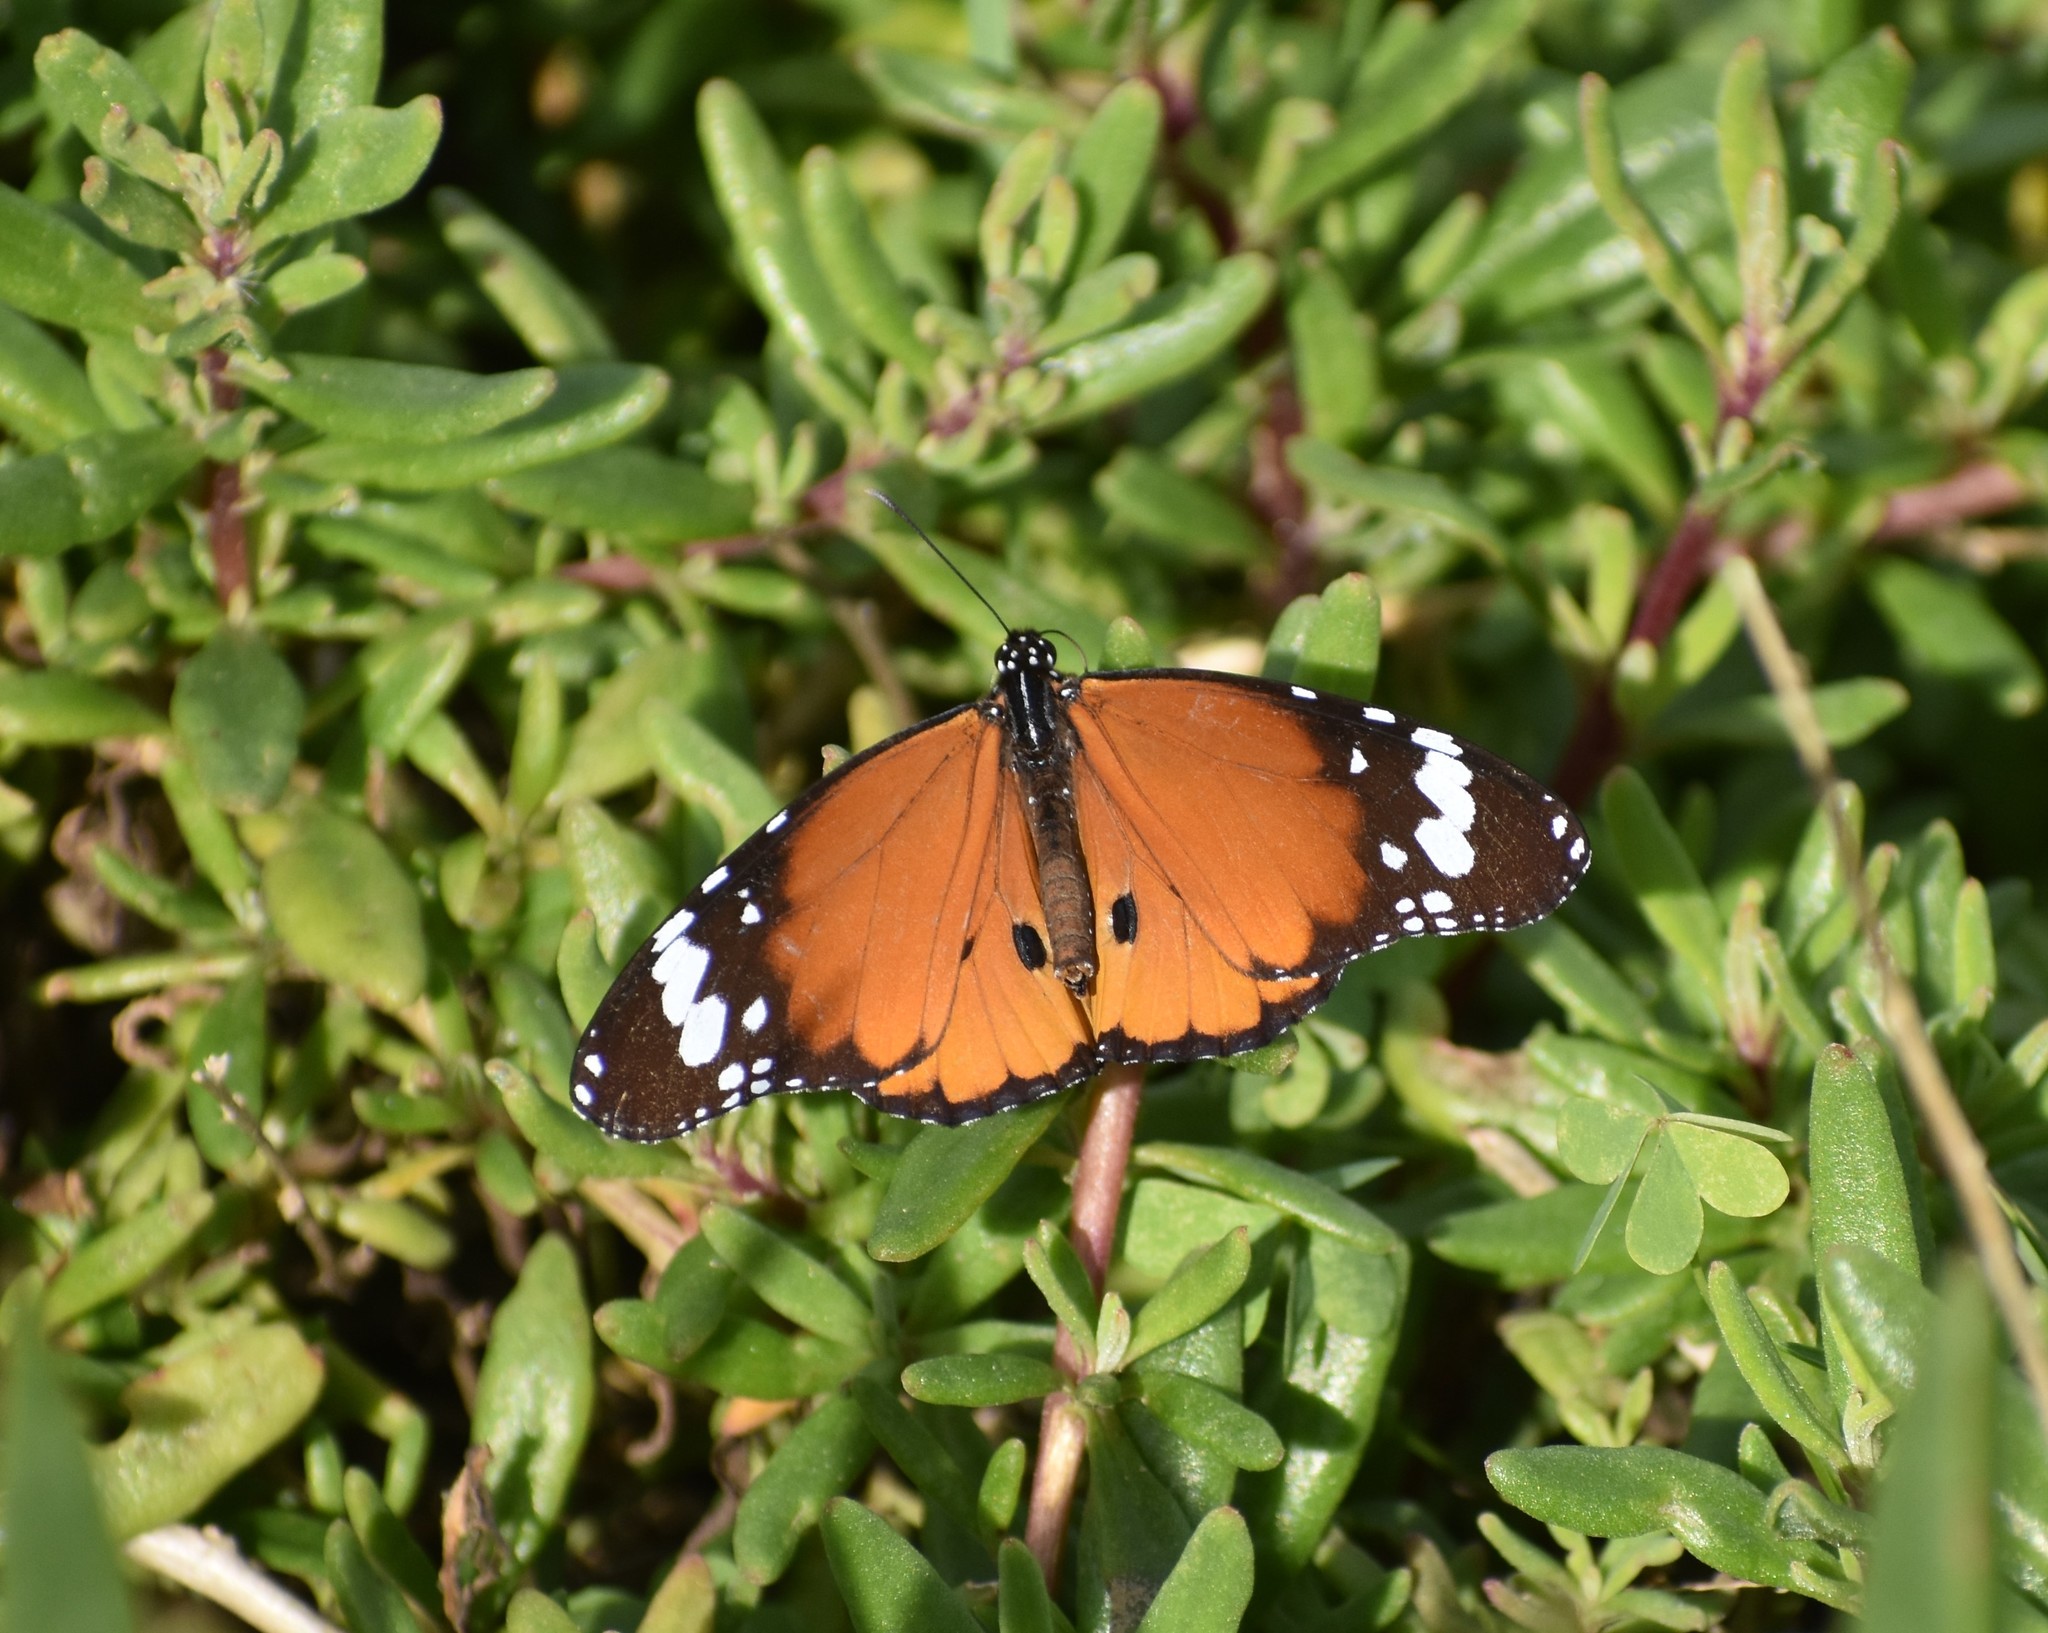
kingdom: Animalia
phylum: Arthropoda
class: Insecta
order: Lepidoptera
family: Nymphalidae
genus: Danaus
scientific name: Danaus chrysippus
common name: Plain tiger
